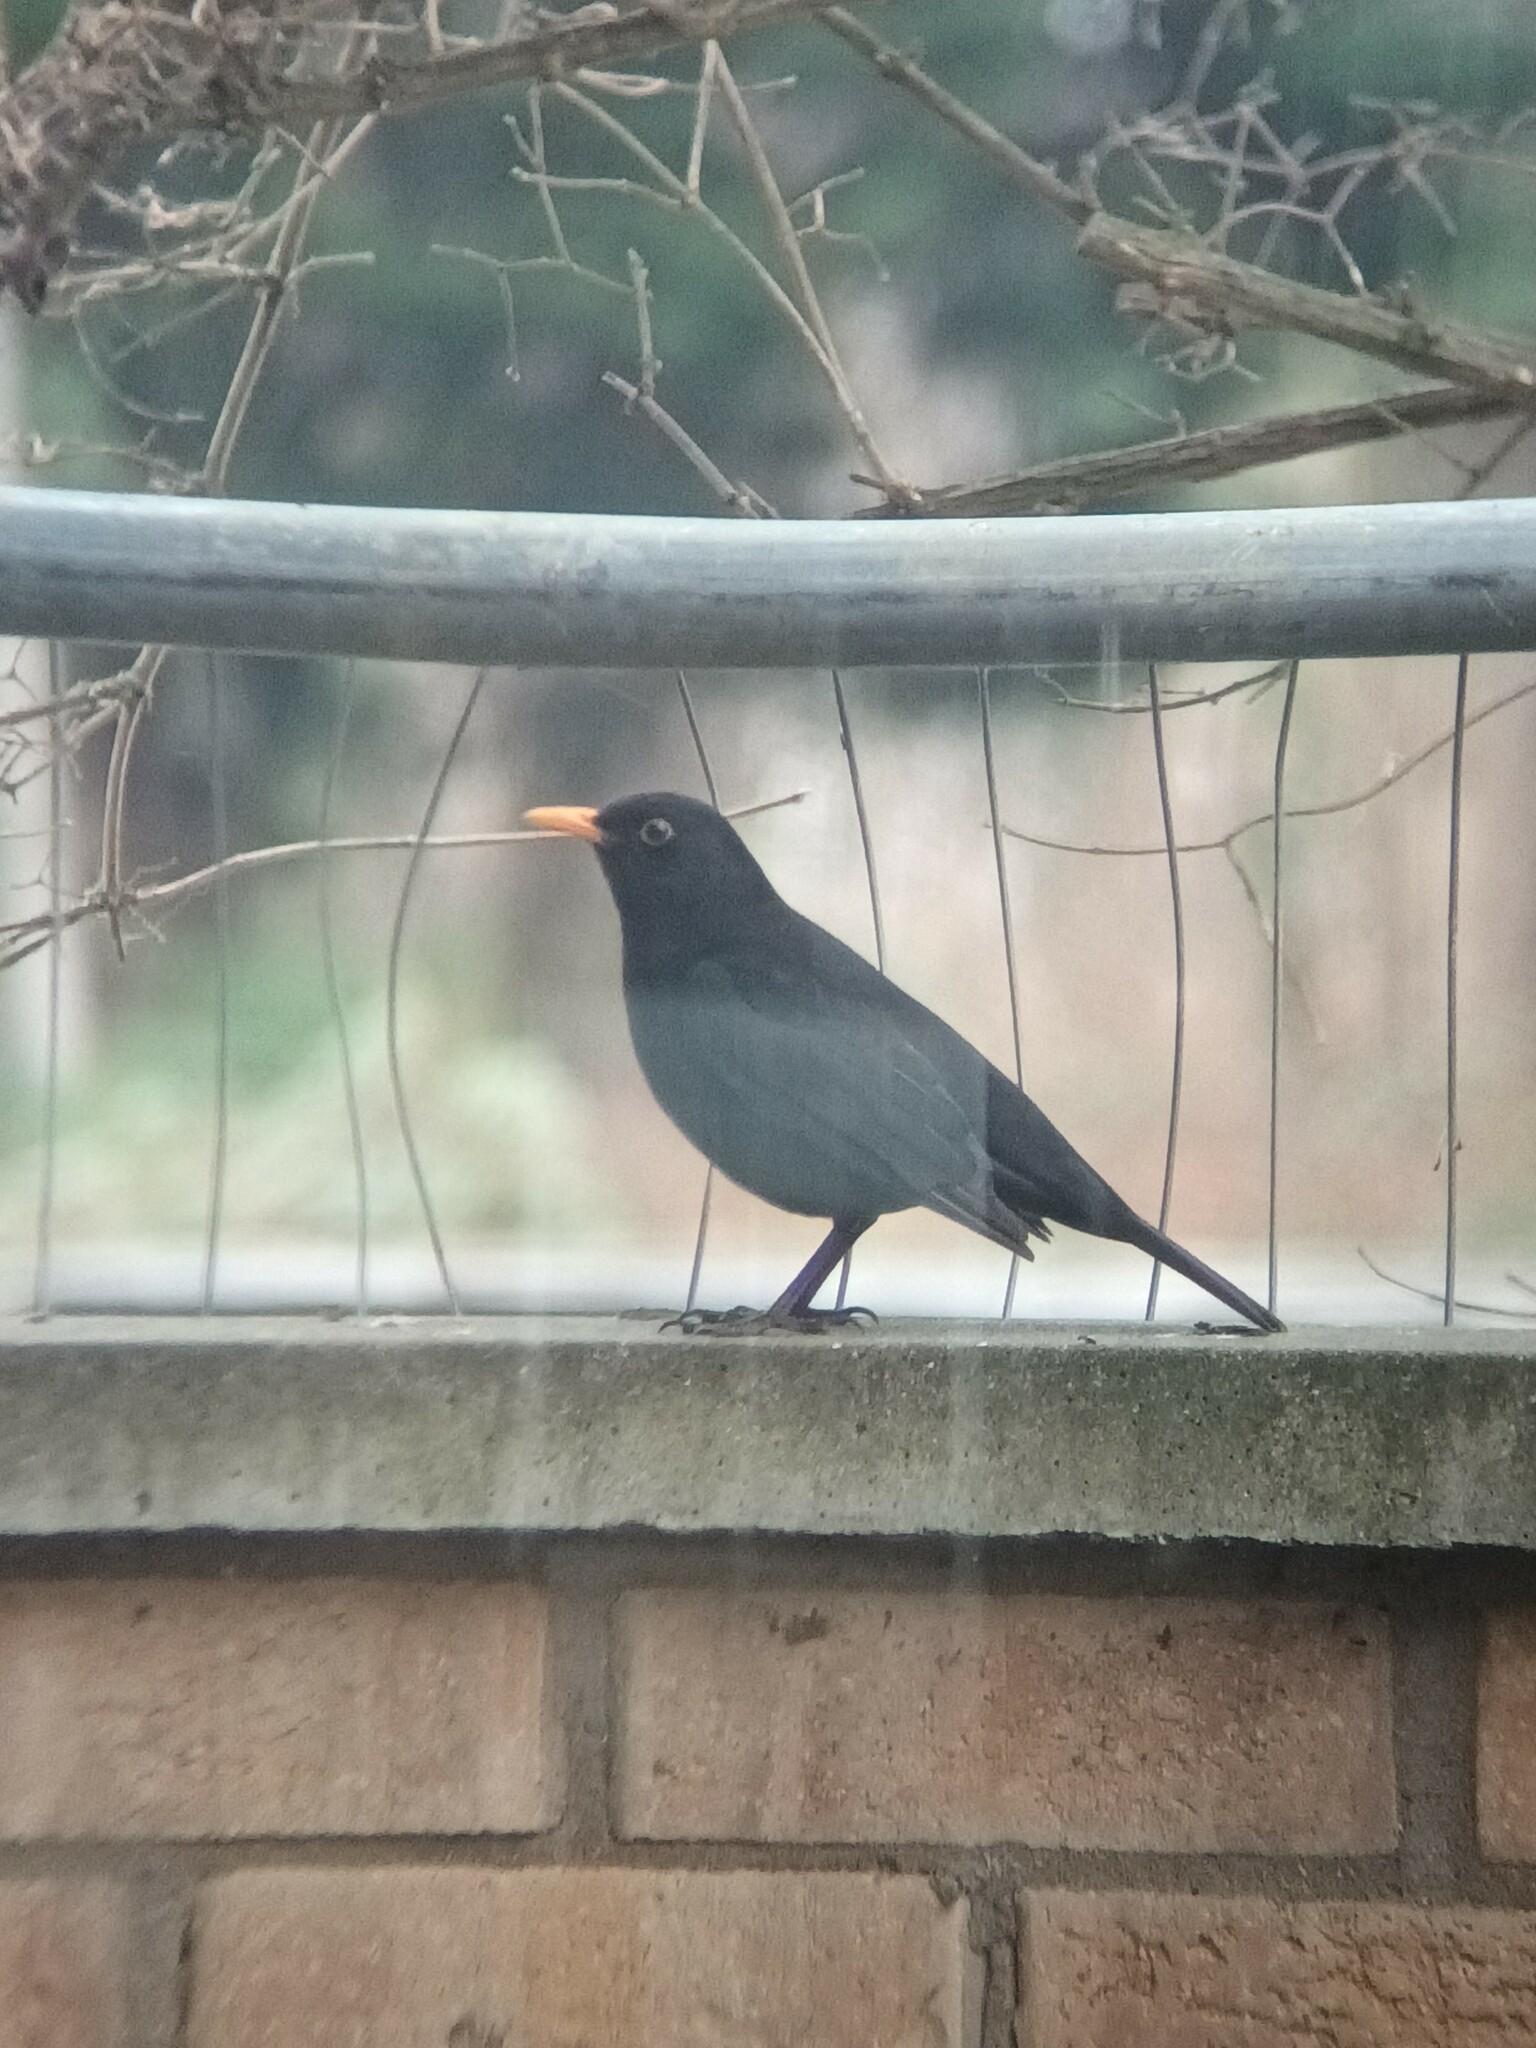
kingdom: Animalia
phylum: Chordata
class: Aves
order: Passeriformes
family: Turdidae
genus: Turdus
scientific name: Turdus merula
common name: Common blackbird
